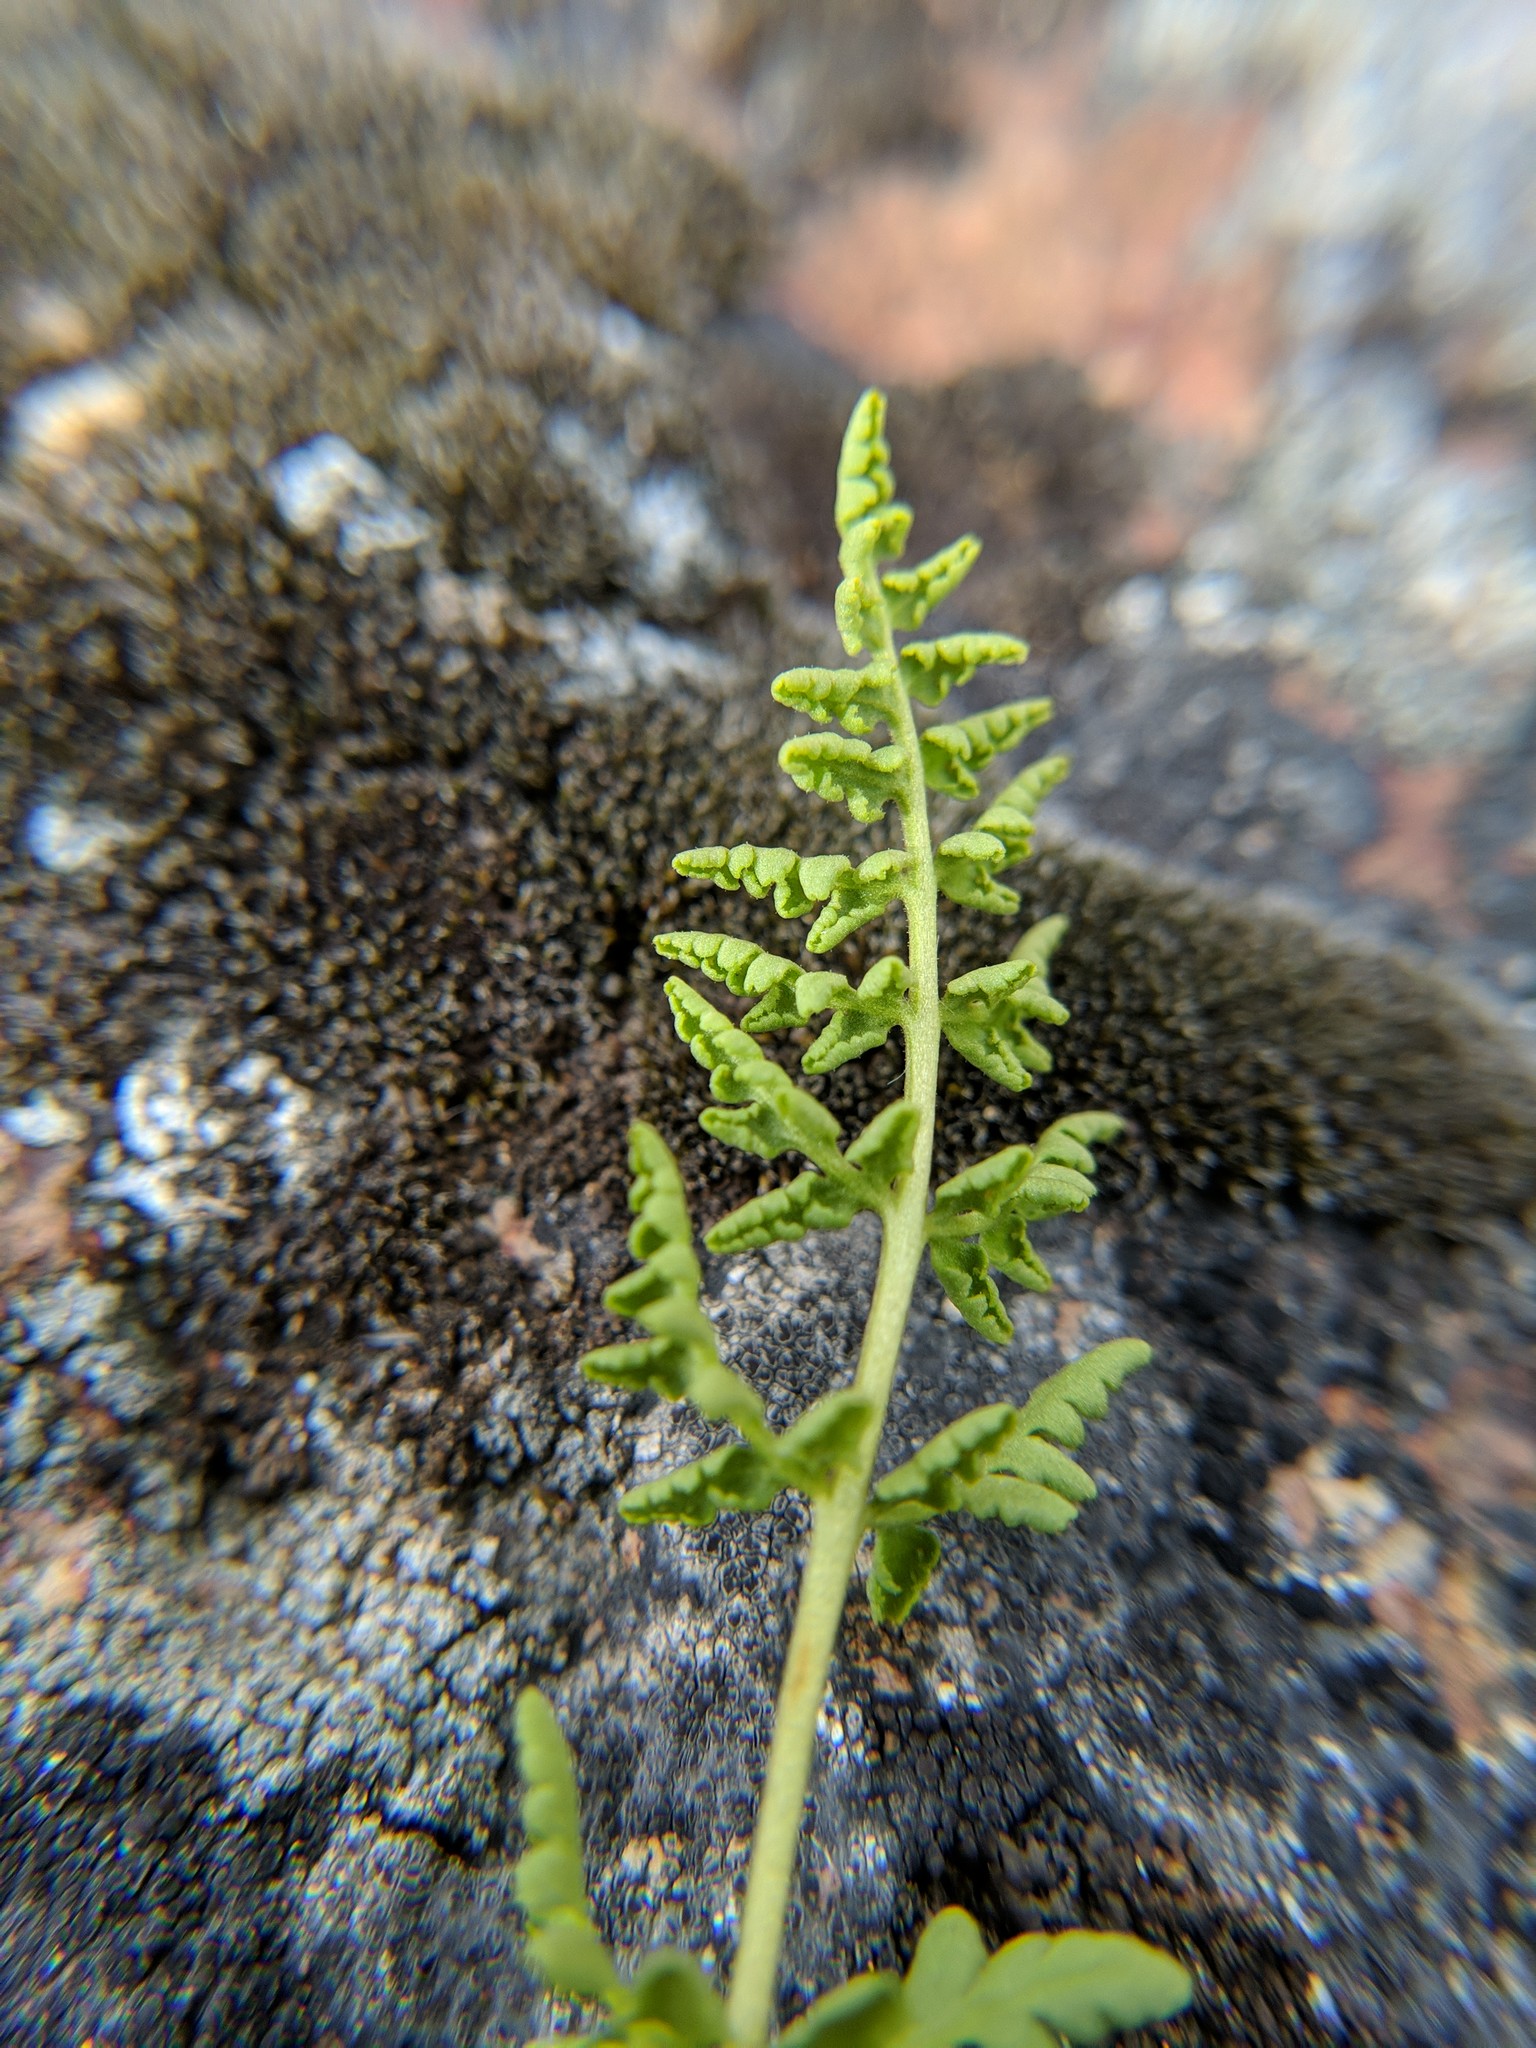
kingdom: Plantae
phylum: Tracheophyta
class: Polypodiopsida
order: Polypodiales
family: Woodsiaceae
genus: Physematium
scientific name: Physematium oreganum
